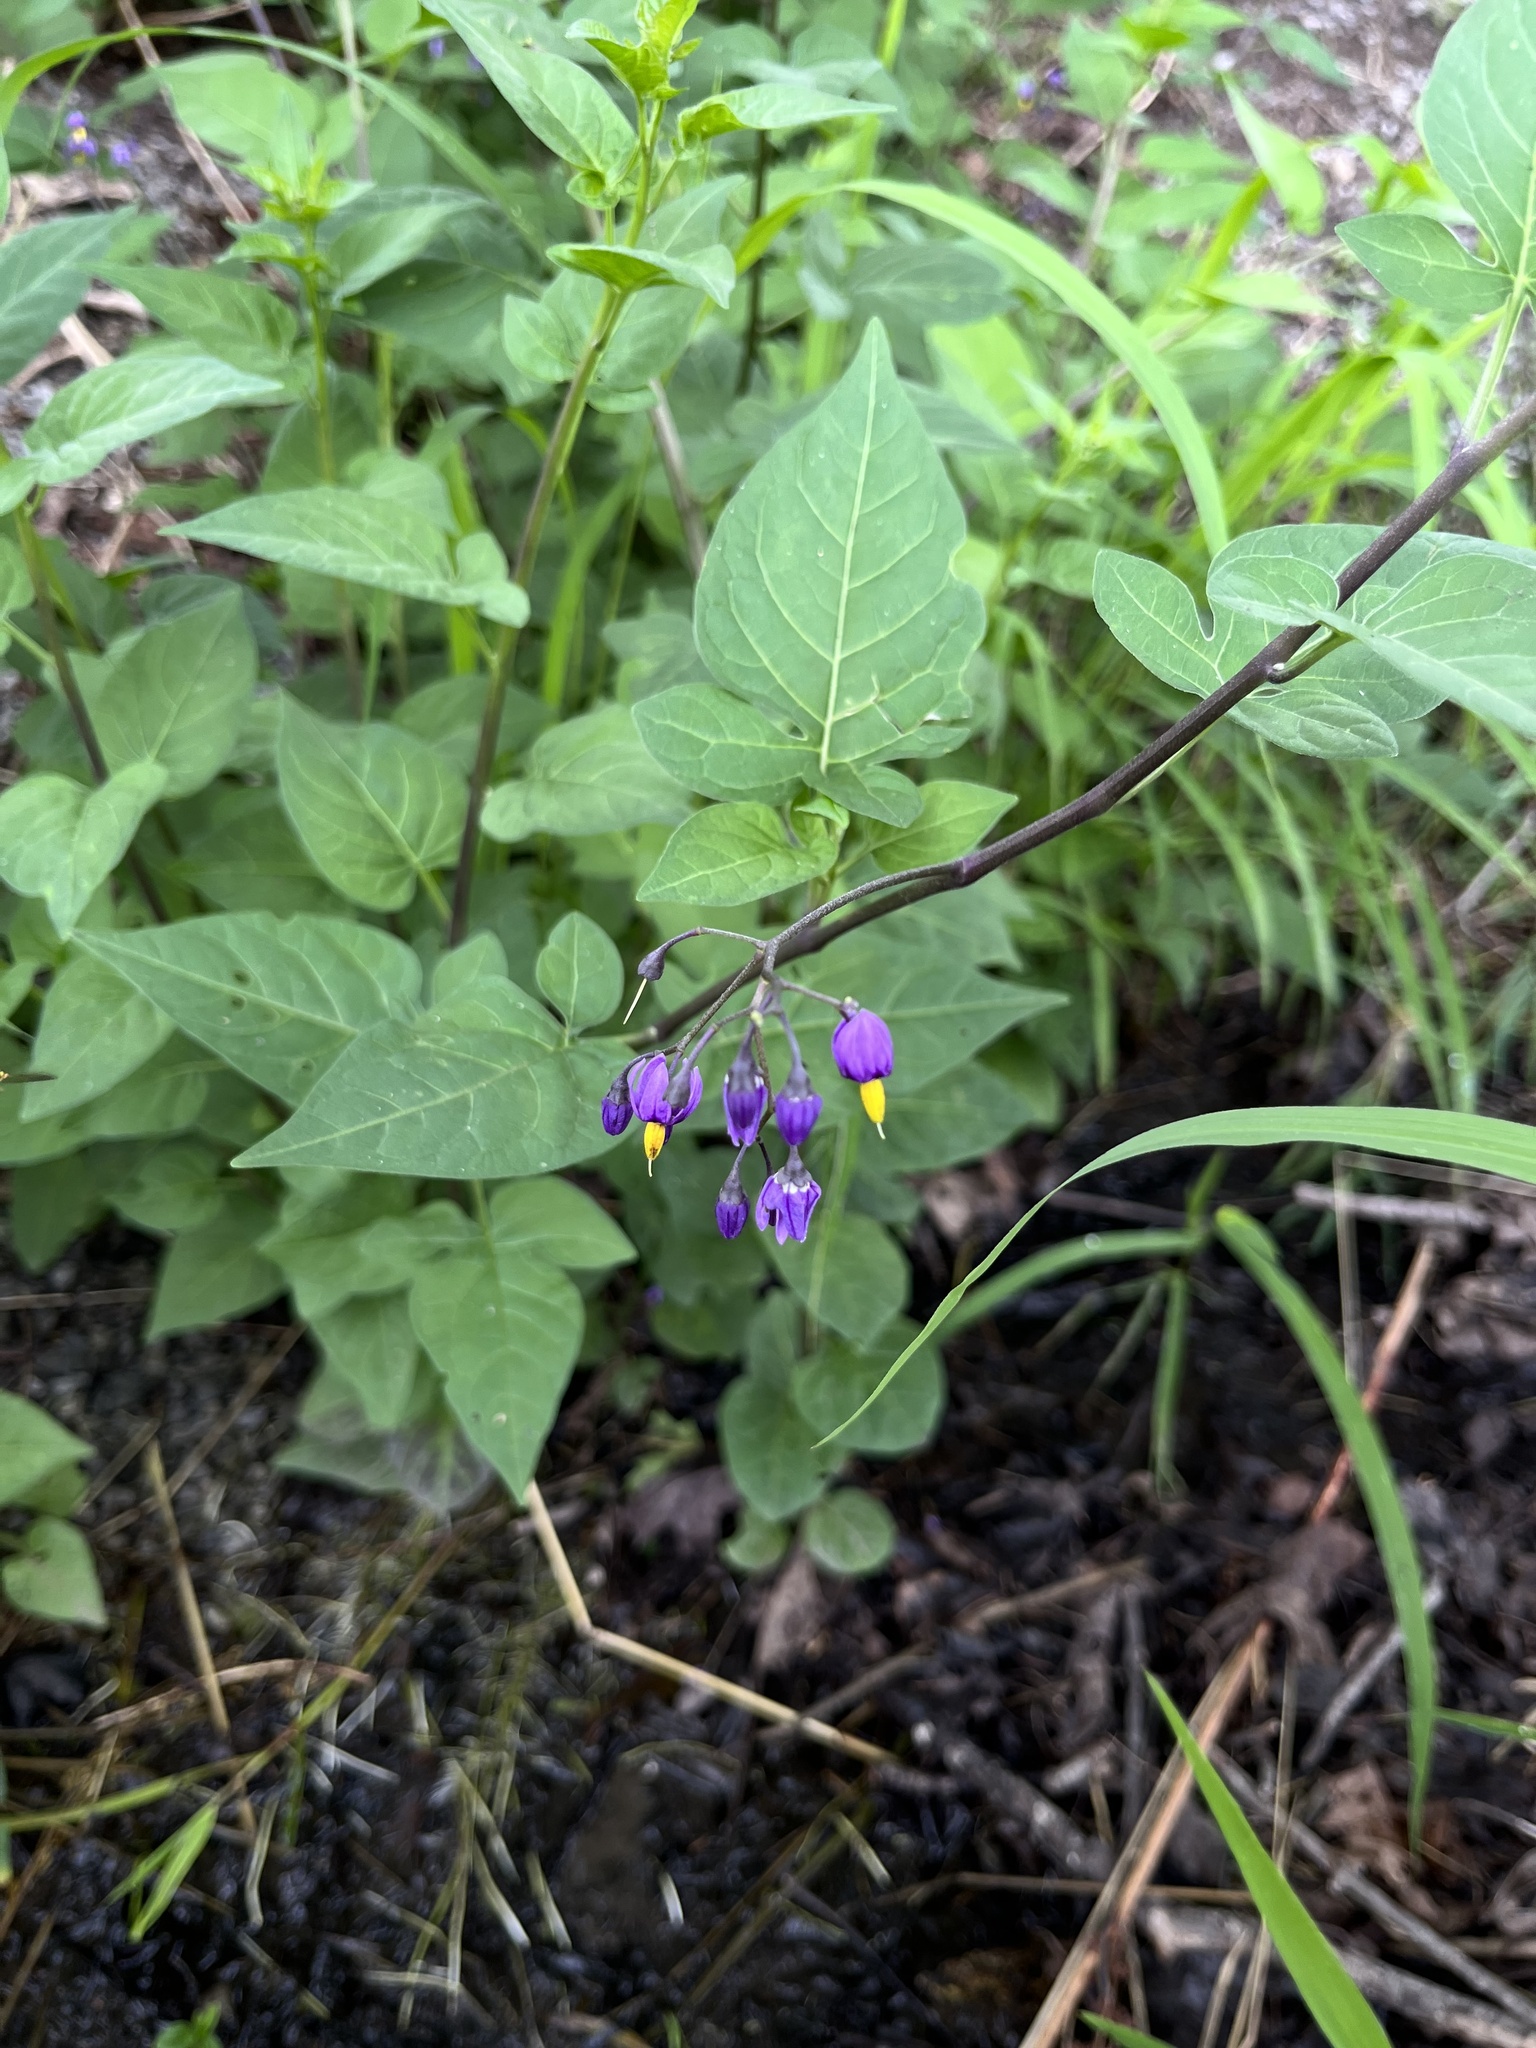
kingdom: Plantae
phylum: Tracheophyta
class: Magnoliopsida
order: Solanales
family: Solanaceae
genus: Solanum
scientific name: Solanum dulcamara
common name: Climbing nightshade
